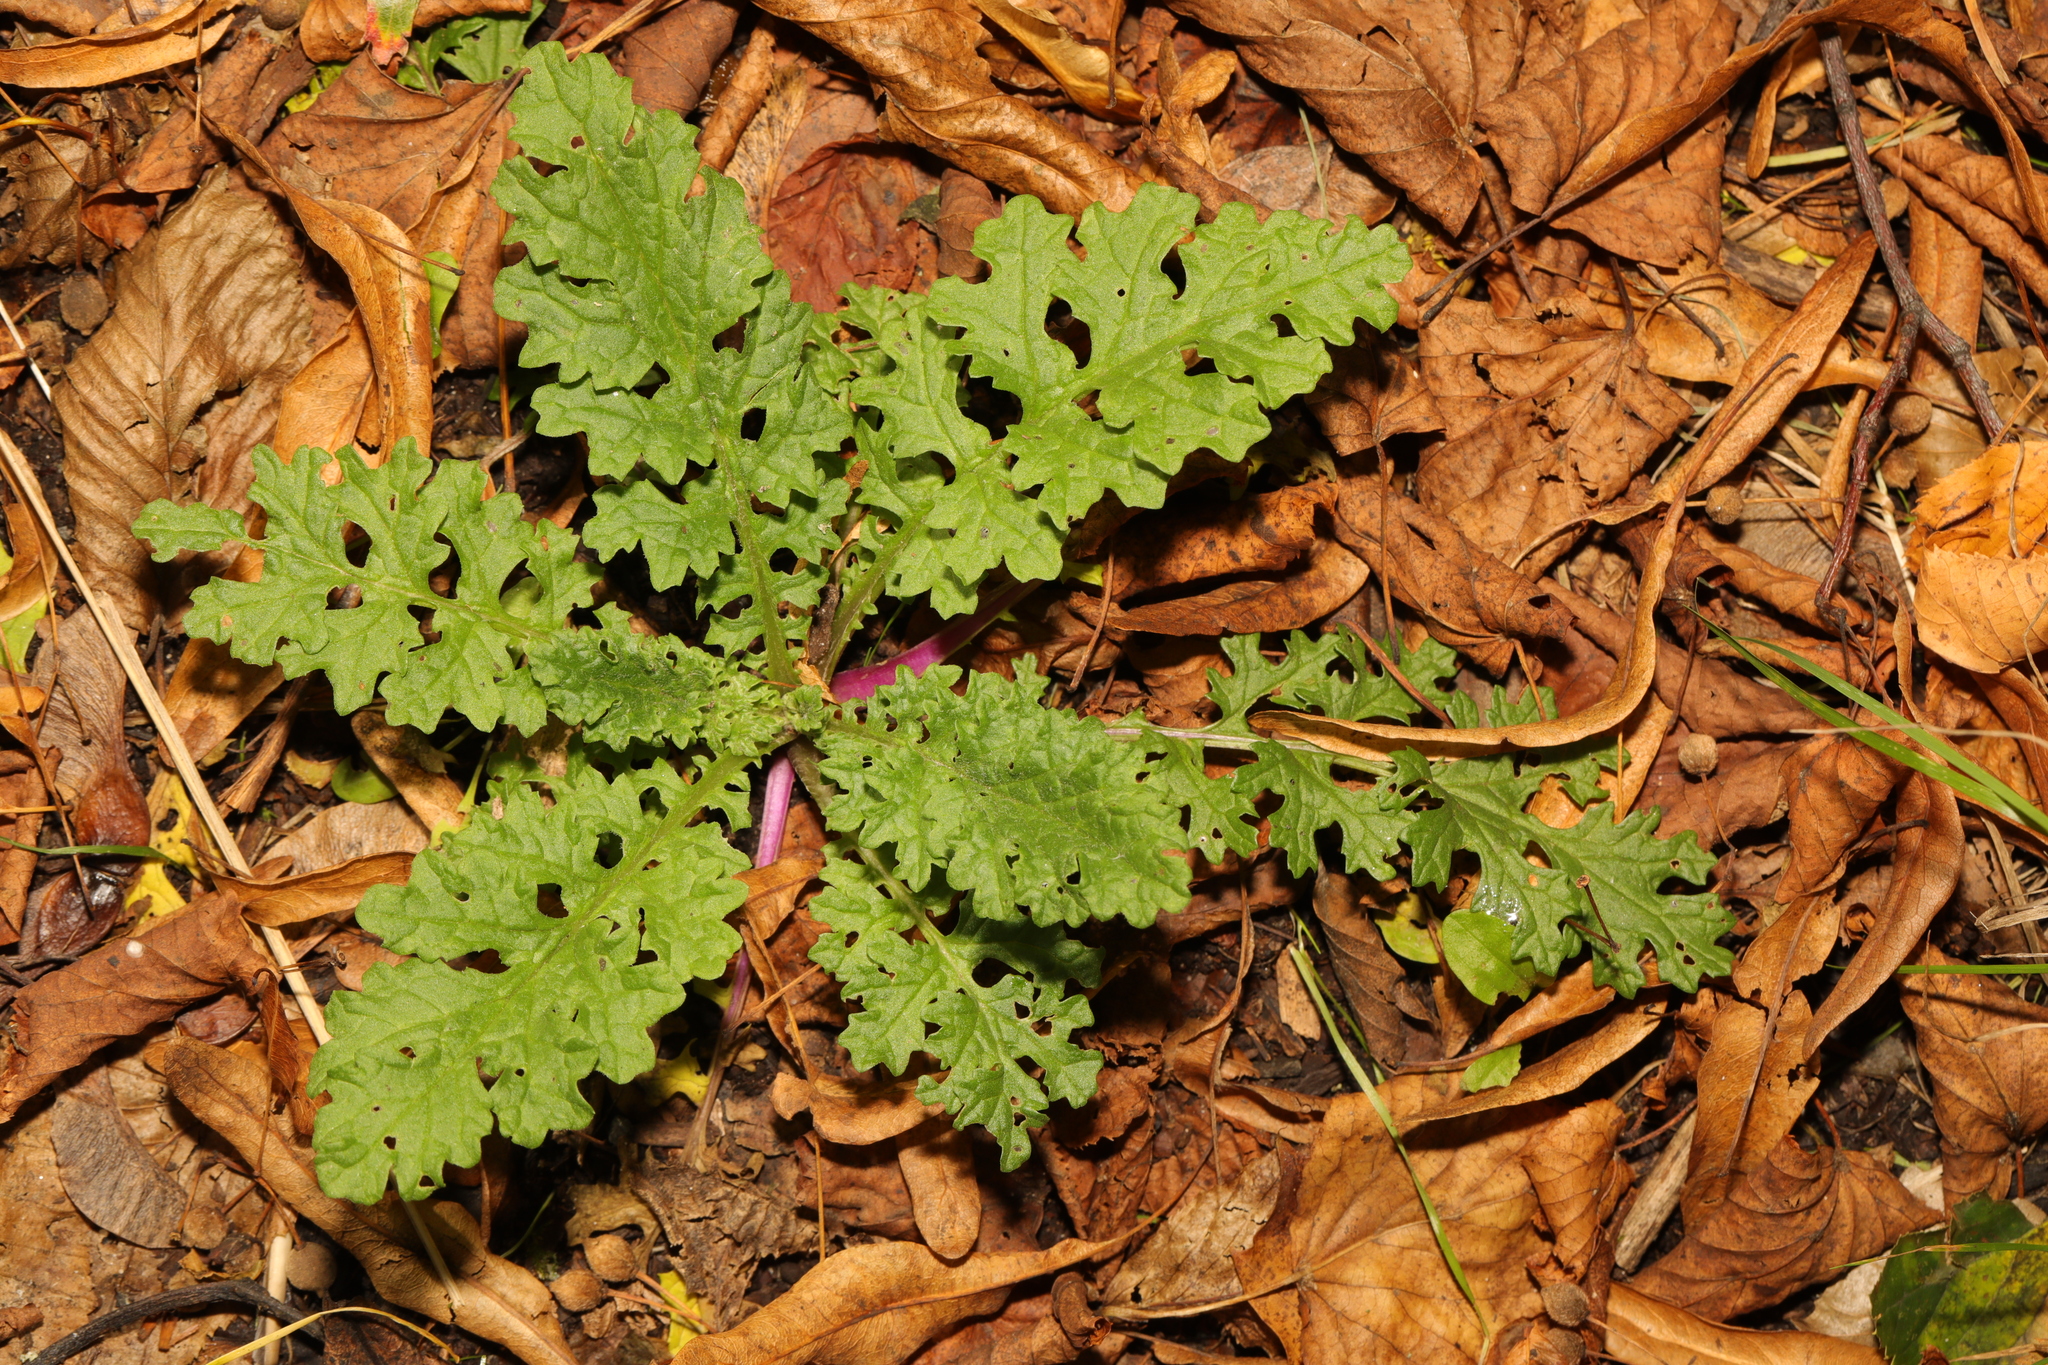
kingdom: Plantae
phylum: Tracheophyta
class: Magnoliopsida
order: Asterales
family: Asteraceae
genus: Jacobaea
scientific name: Jacobaea vulgaris
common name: Stinking willie
